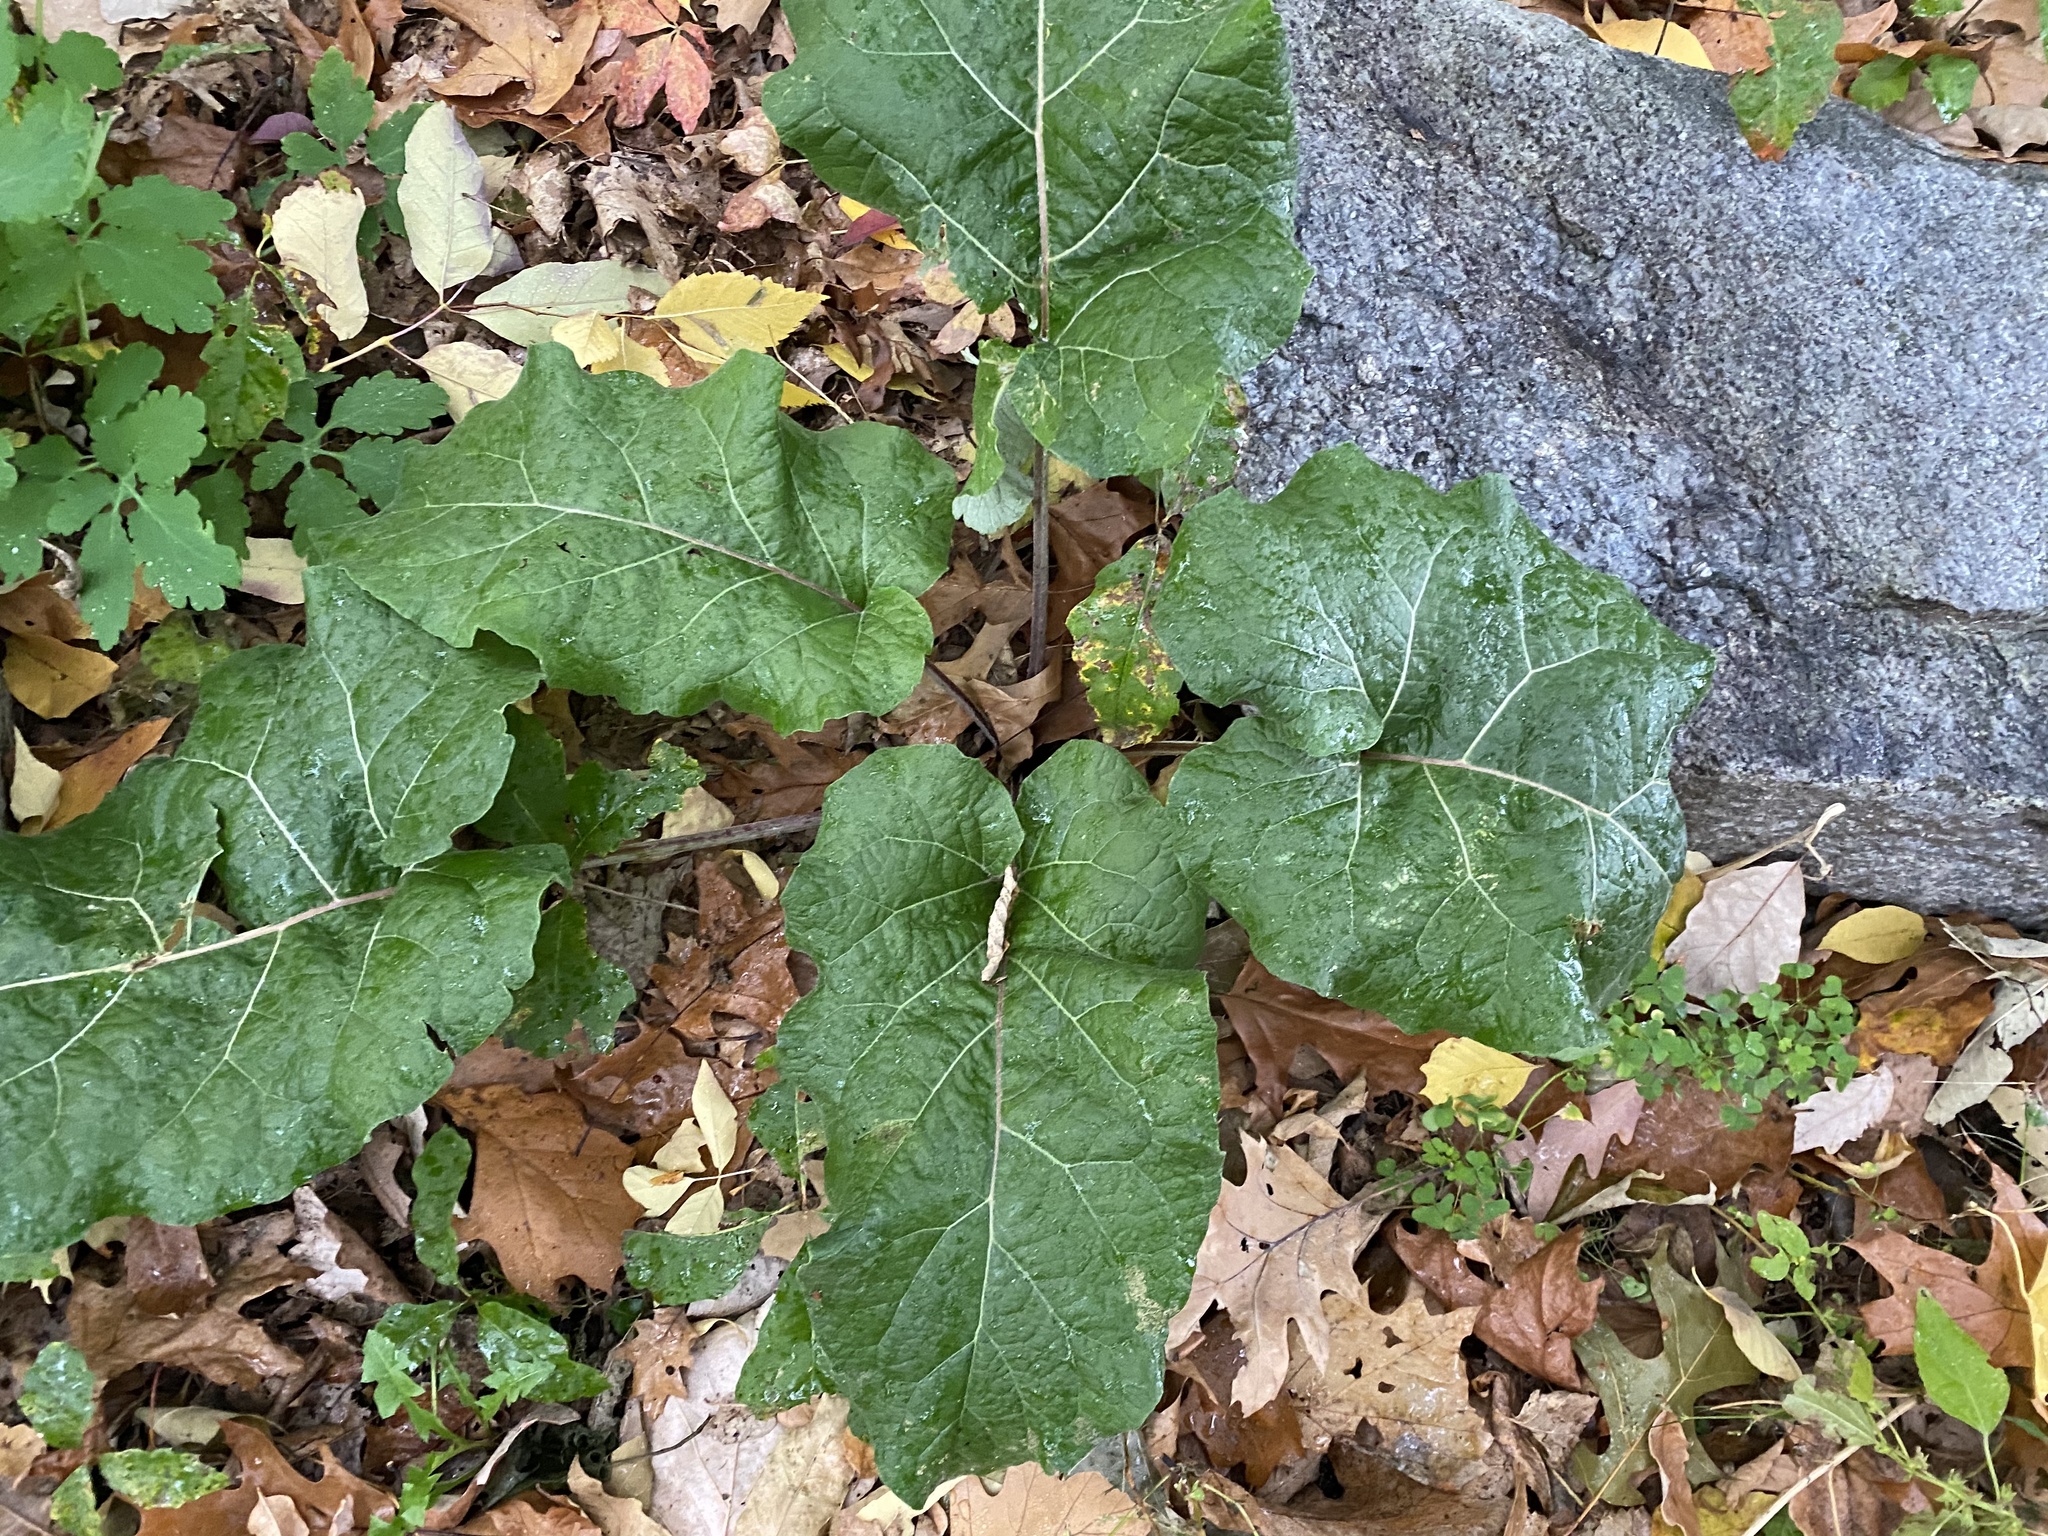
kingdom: Plantae
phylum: Tracheophyta
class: Magnoliopsida
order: Asterales
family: Asteraceae
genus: Arctium
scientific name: Arctium
